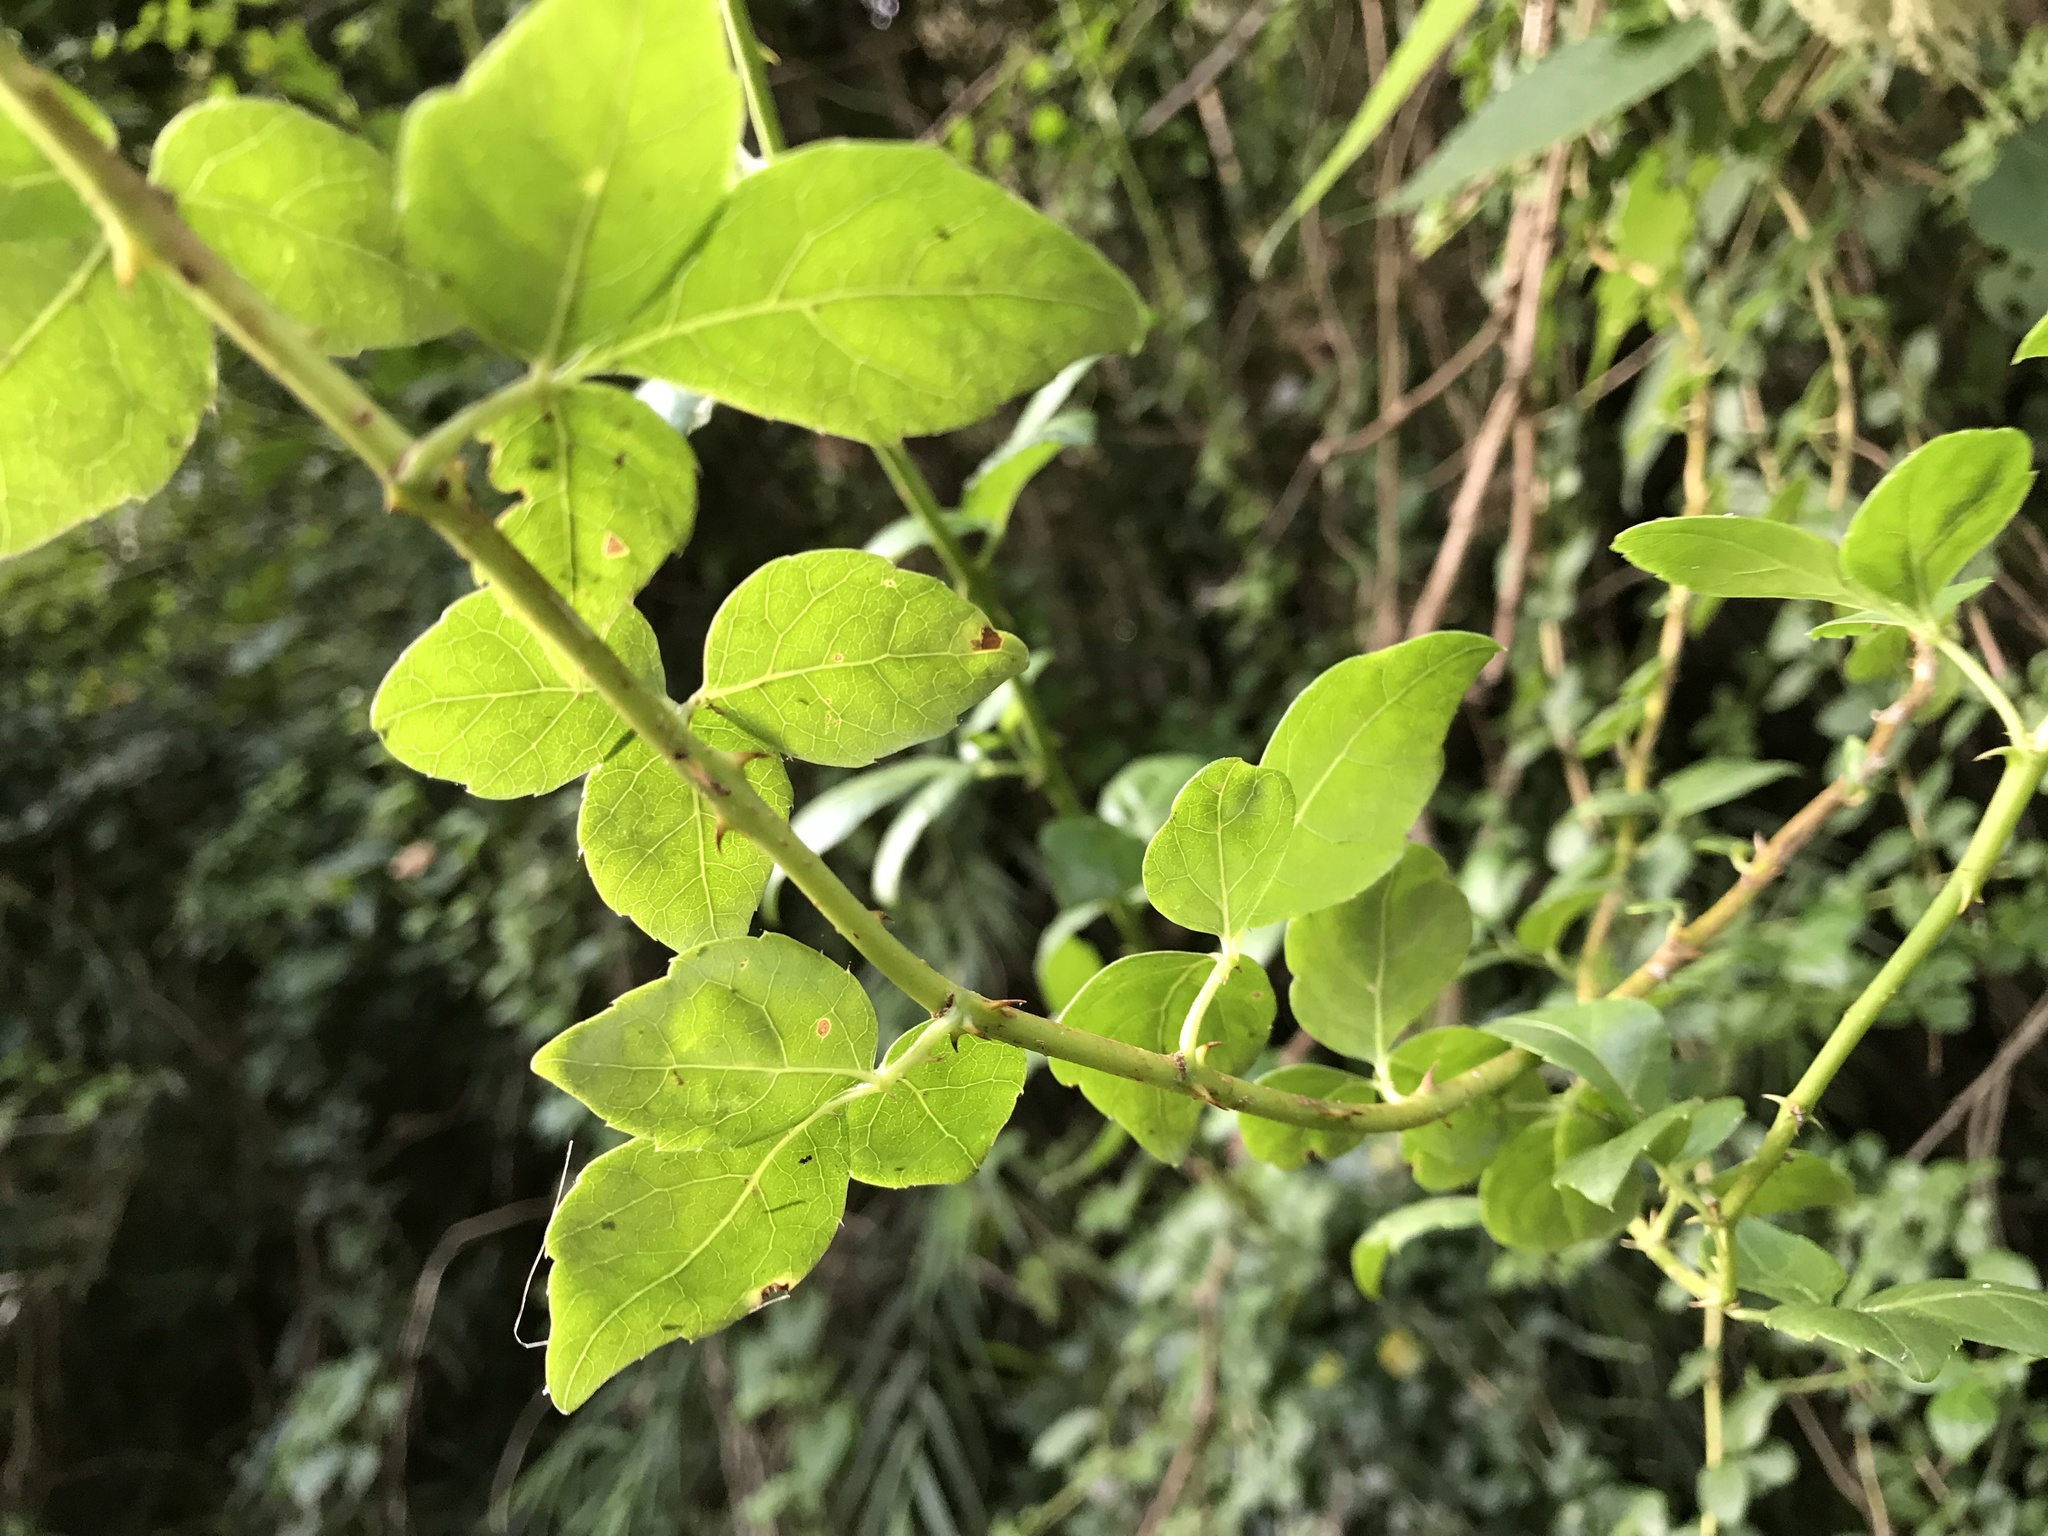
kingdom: Plantae
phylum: Tracheophyta
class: Magnoliopsida
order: Apiales
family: Araliaceae
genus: Eleutherococcus
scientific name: Eleutherococcus trifoliatus
